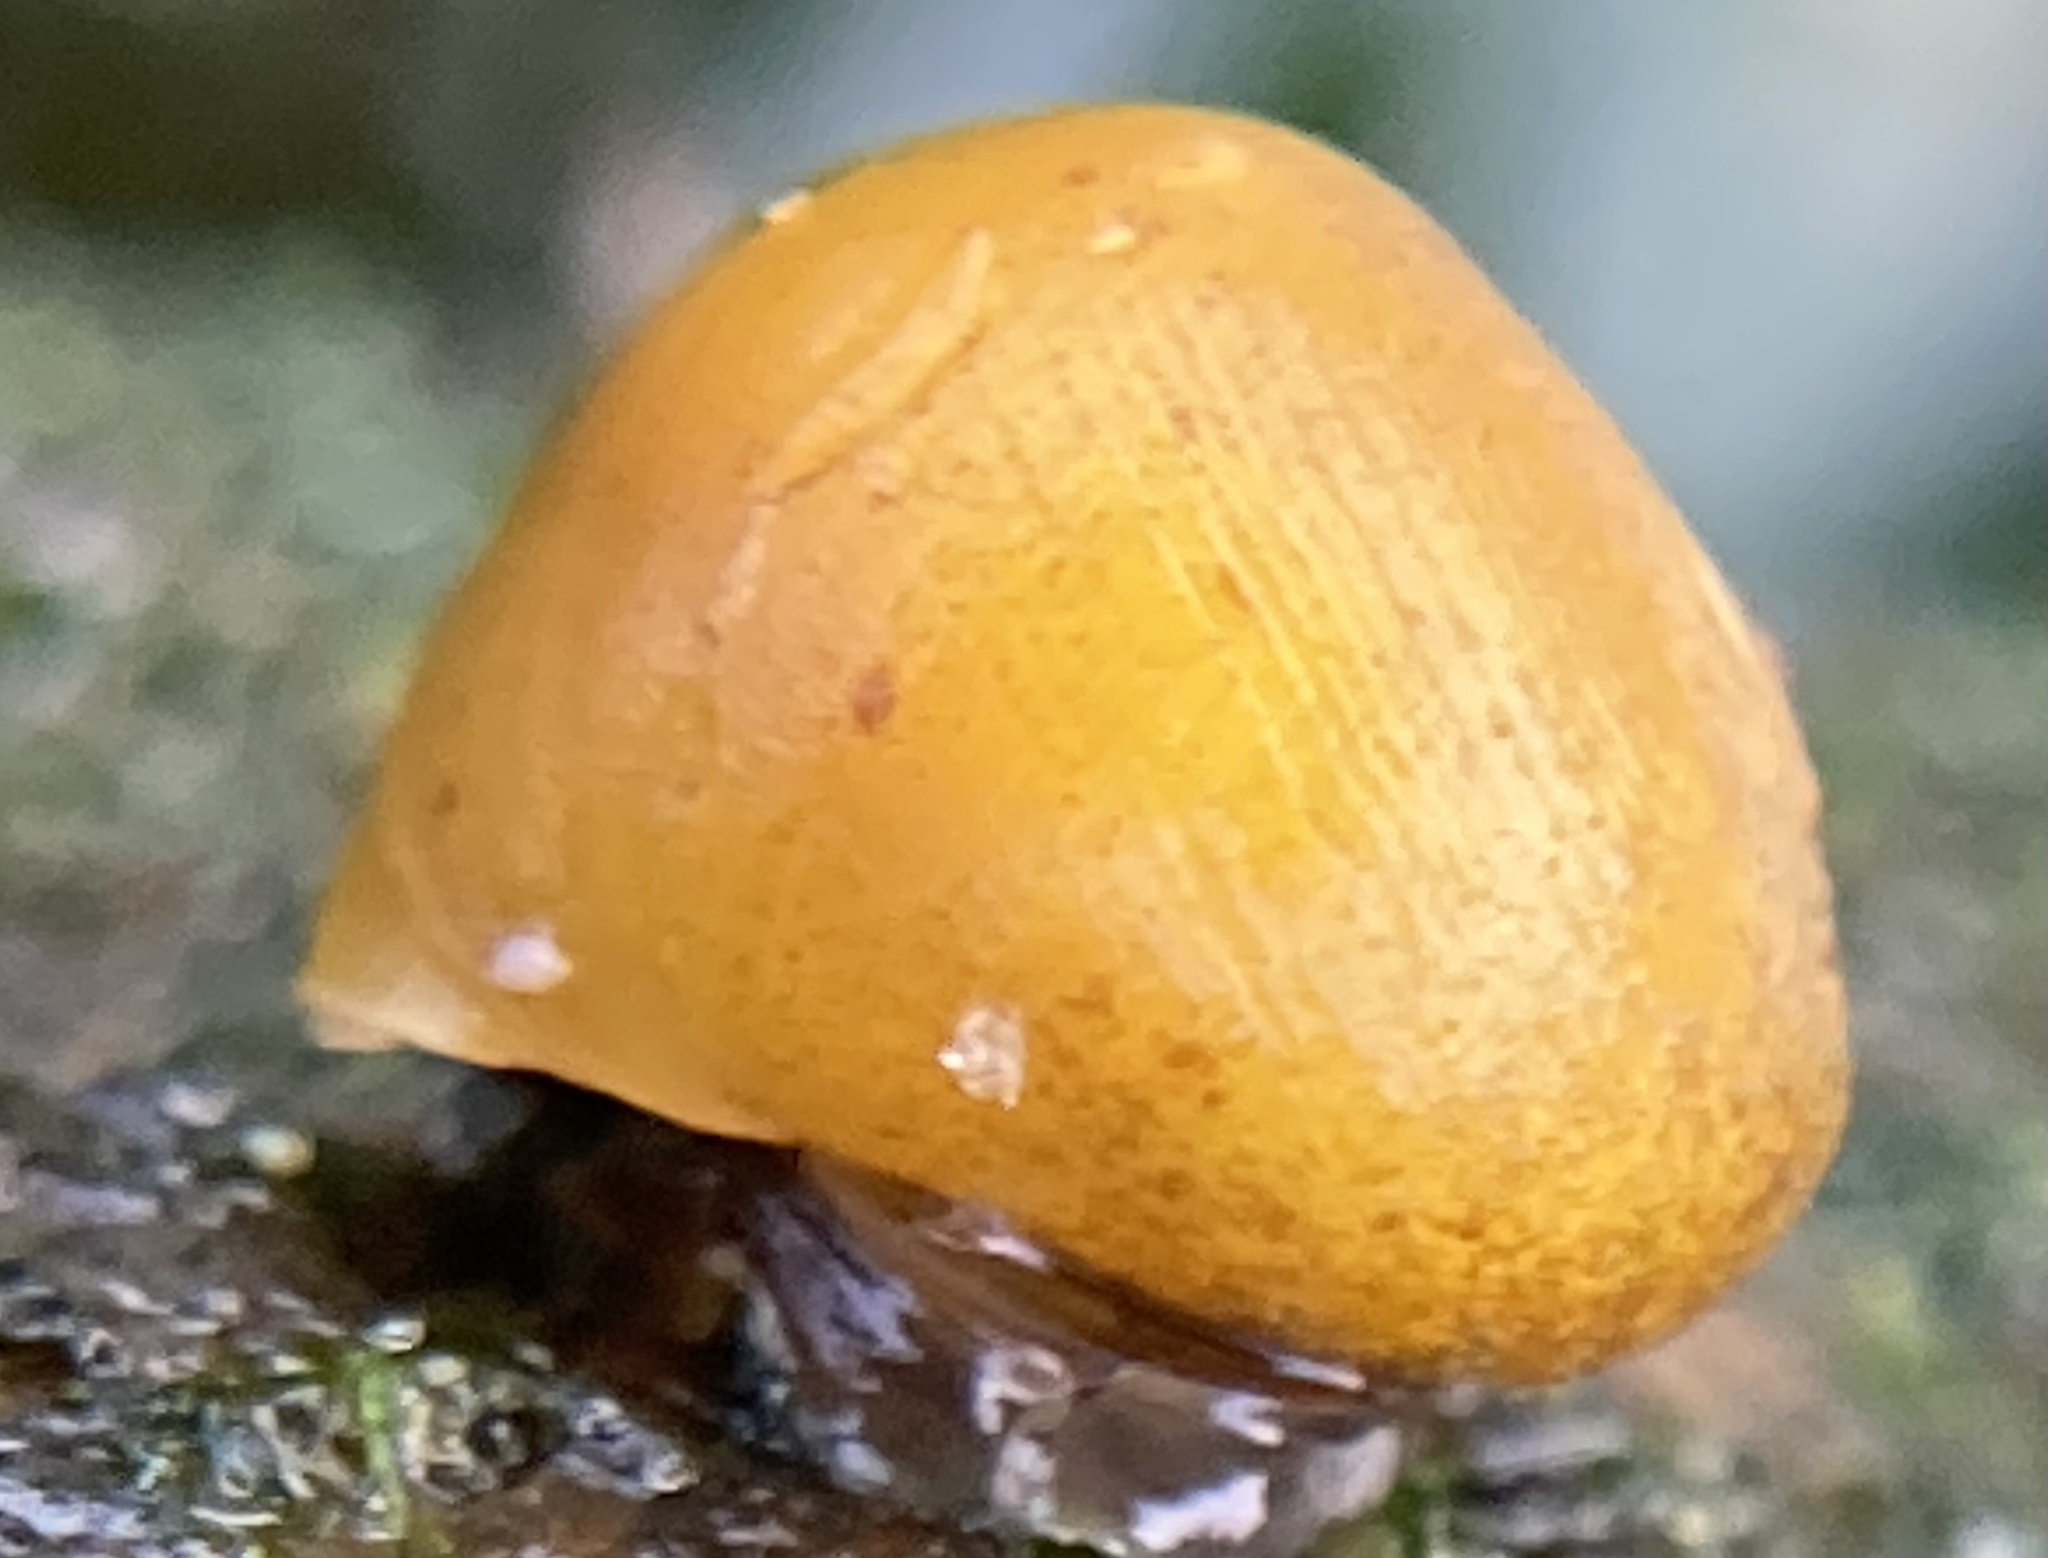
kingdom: Animalia
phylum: Mollusca
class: Gastropoda
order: Littorinimorpha
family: Littorinidae
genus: Littorina
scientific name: Littorina obtusata
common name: Flat periwinkle
